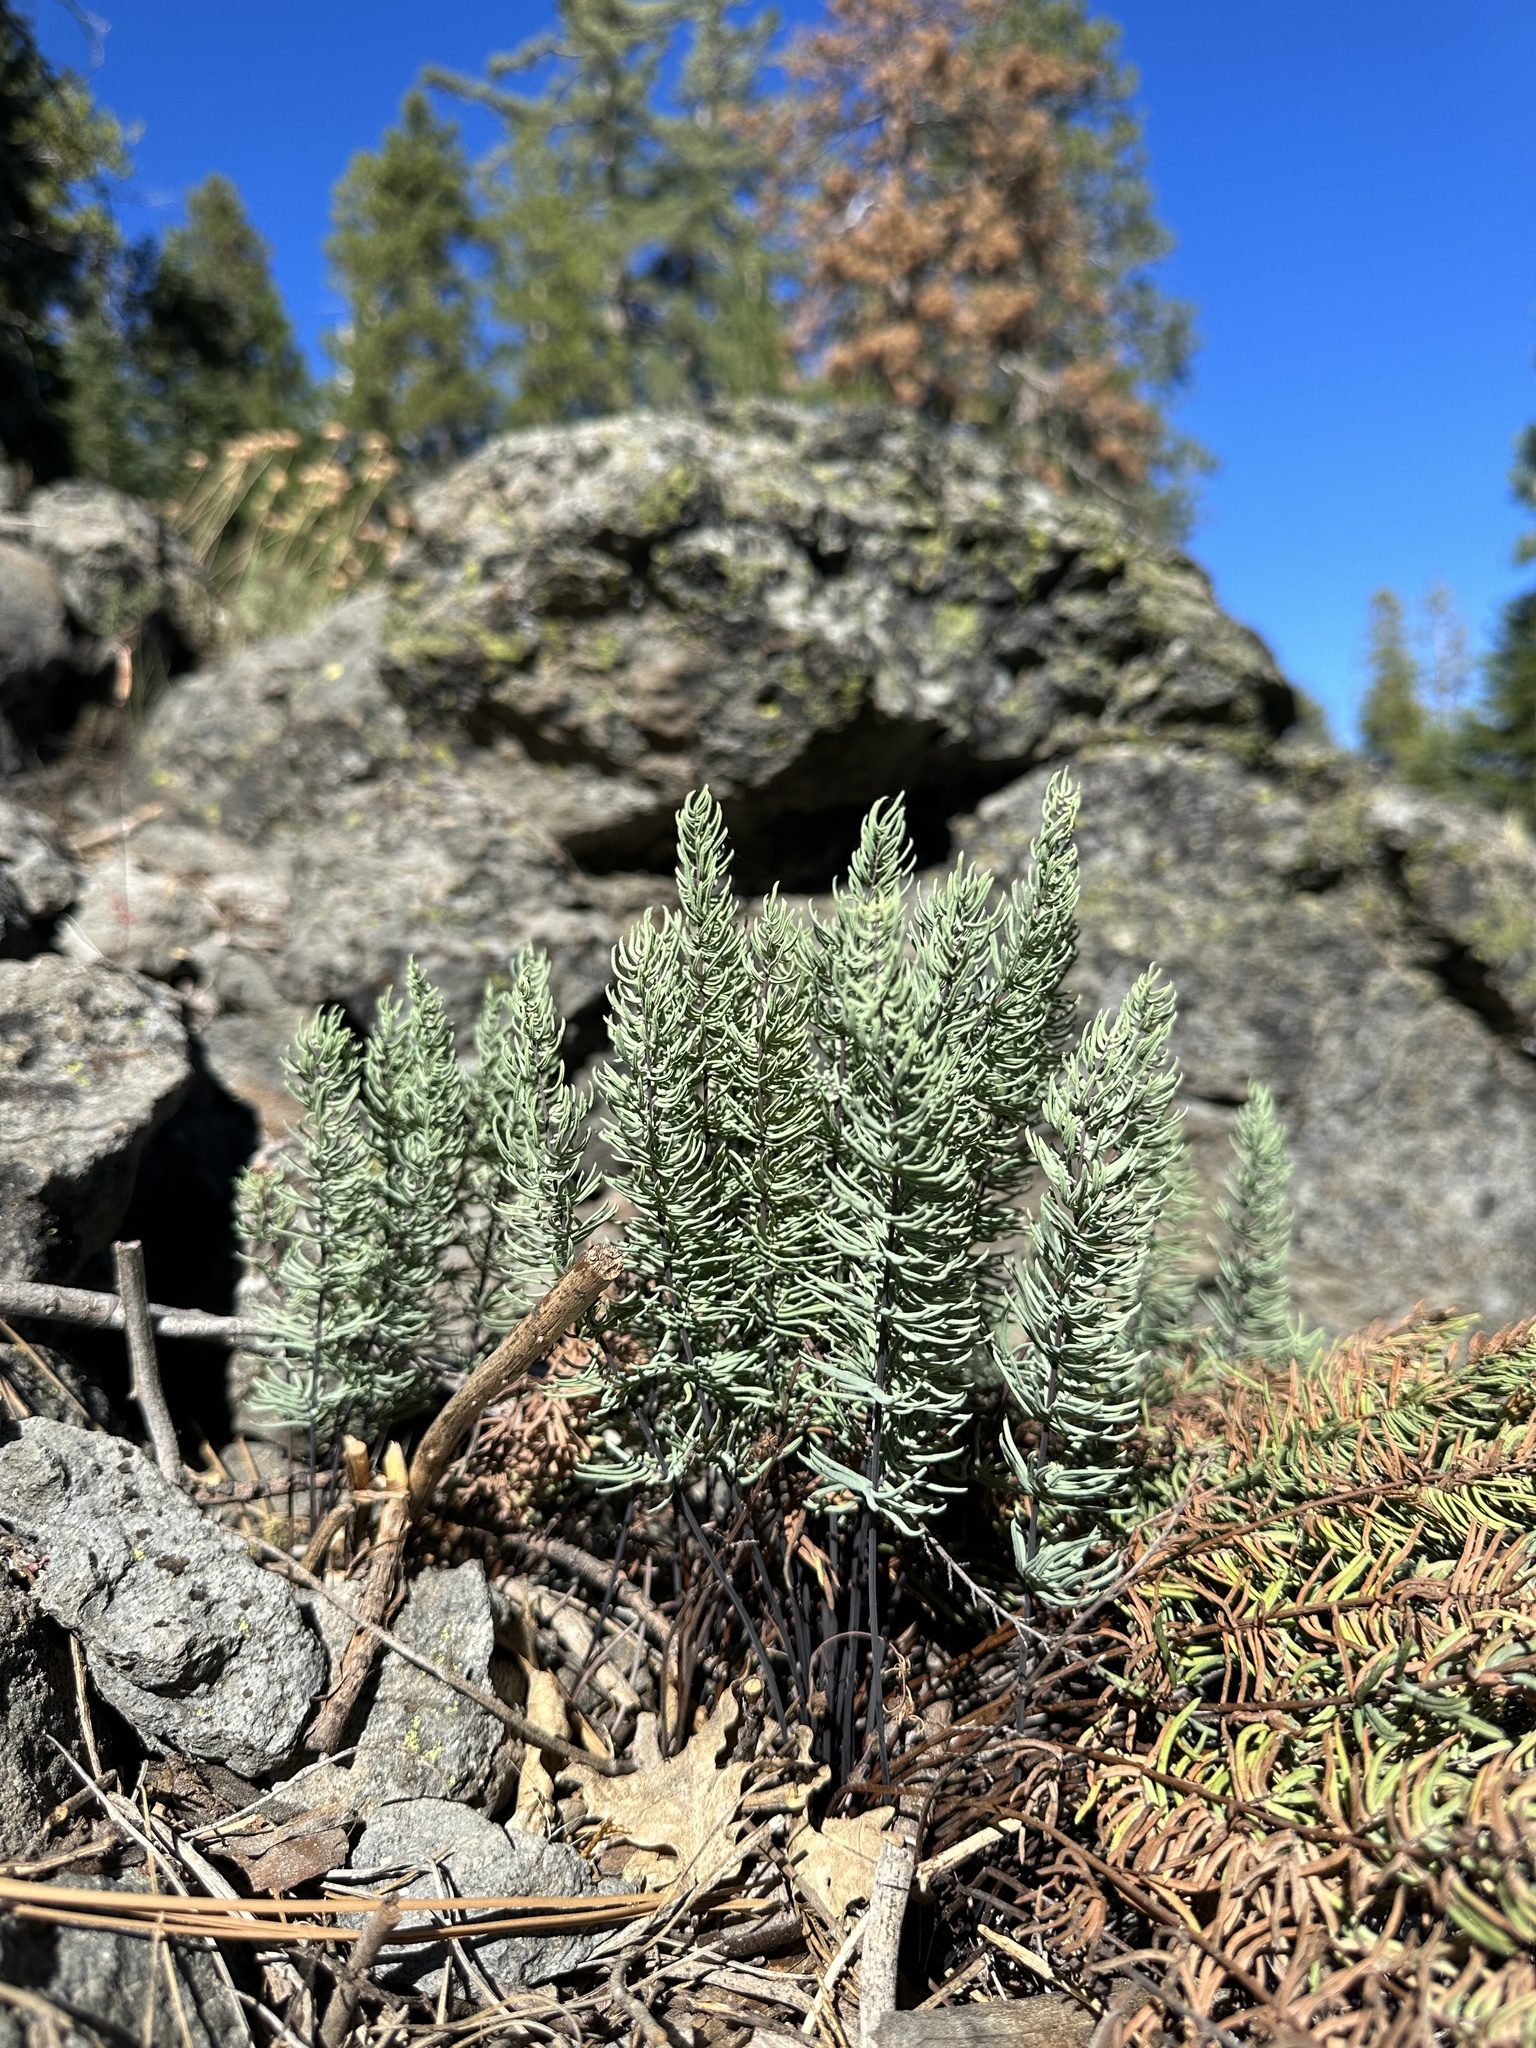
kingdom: Plantae
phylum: Tracheophyta
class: Polypodiopsida
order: Polypodiales
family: Pteridaceae
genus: Pellaea
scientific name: Pellaea brachyptera
